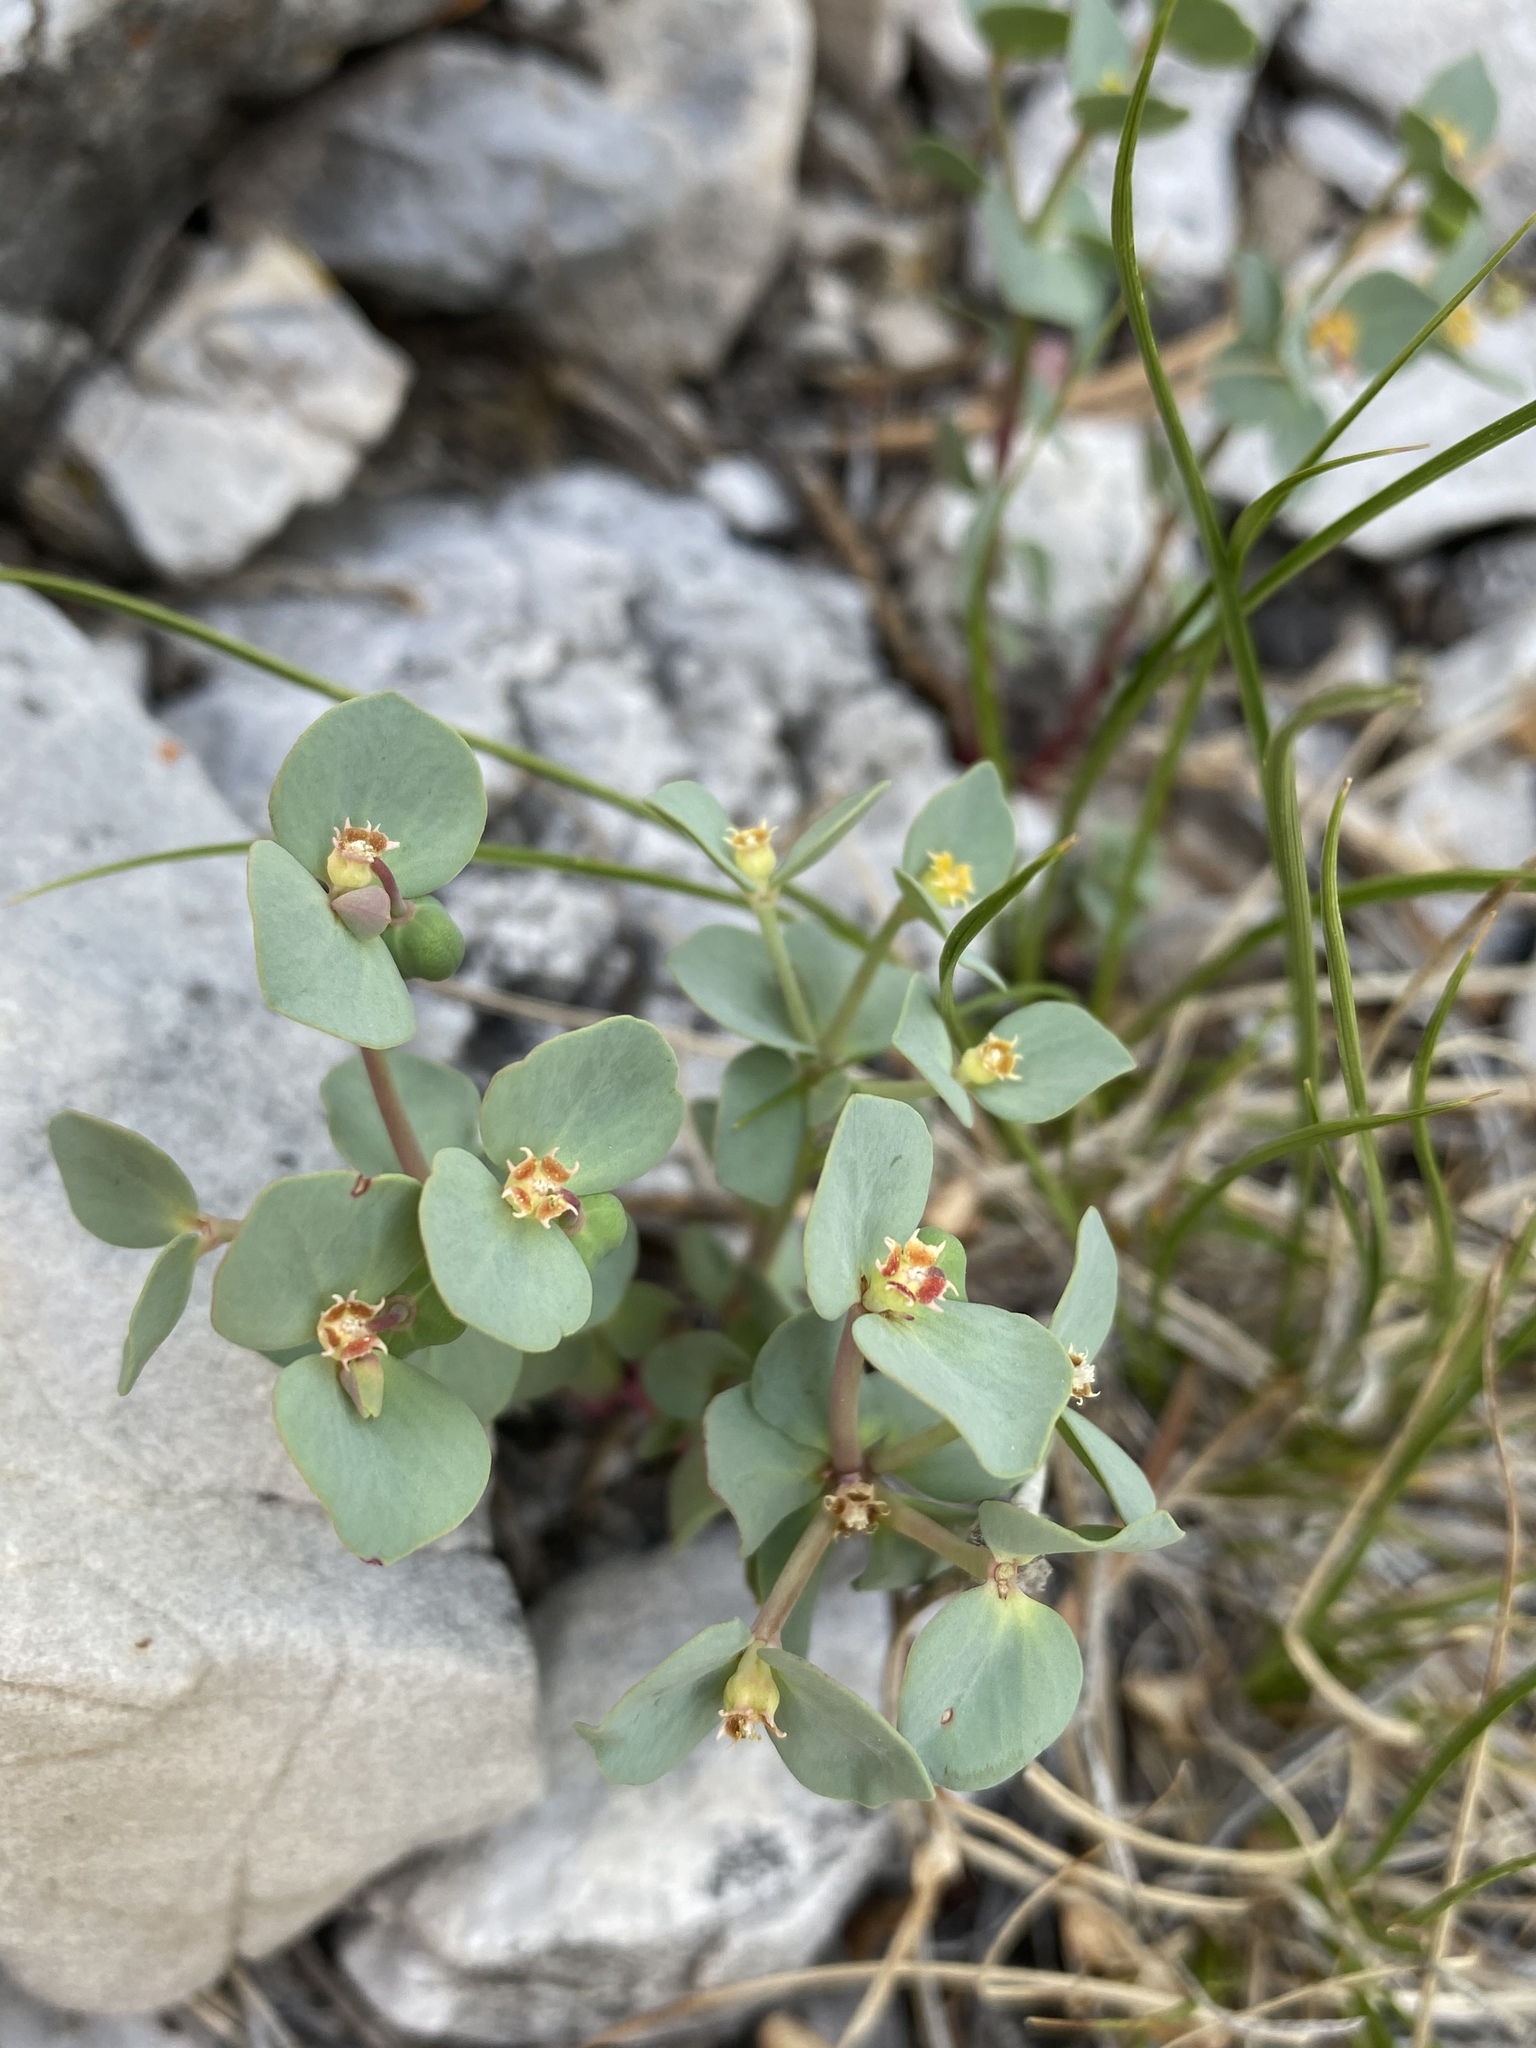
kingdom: Plantae
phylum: Tracheophyta
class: Magnoliopsida
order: Malpighiales
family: Euphorbiaceae
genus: Euphorbia
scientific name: Euphorbia brachycera
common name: Shorthorn spurge
